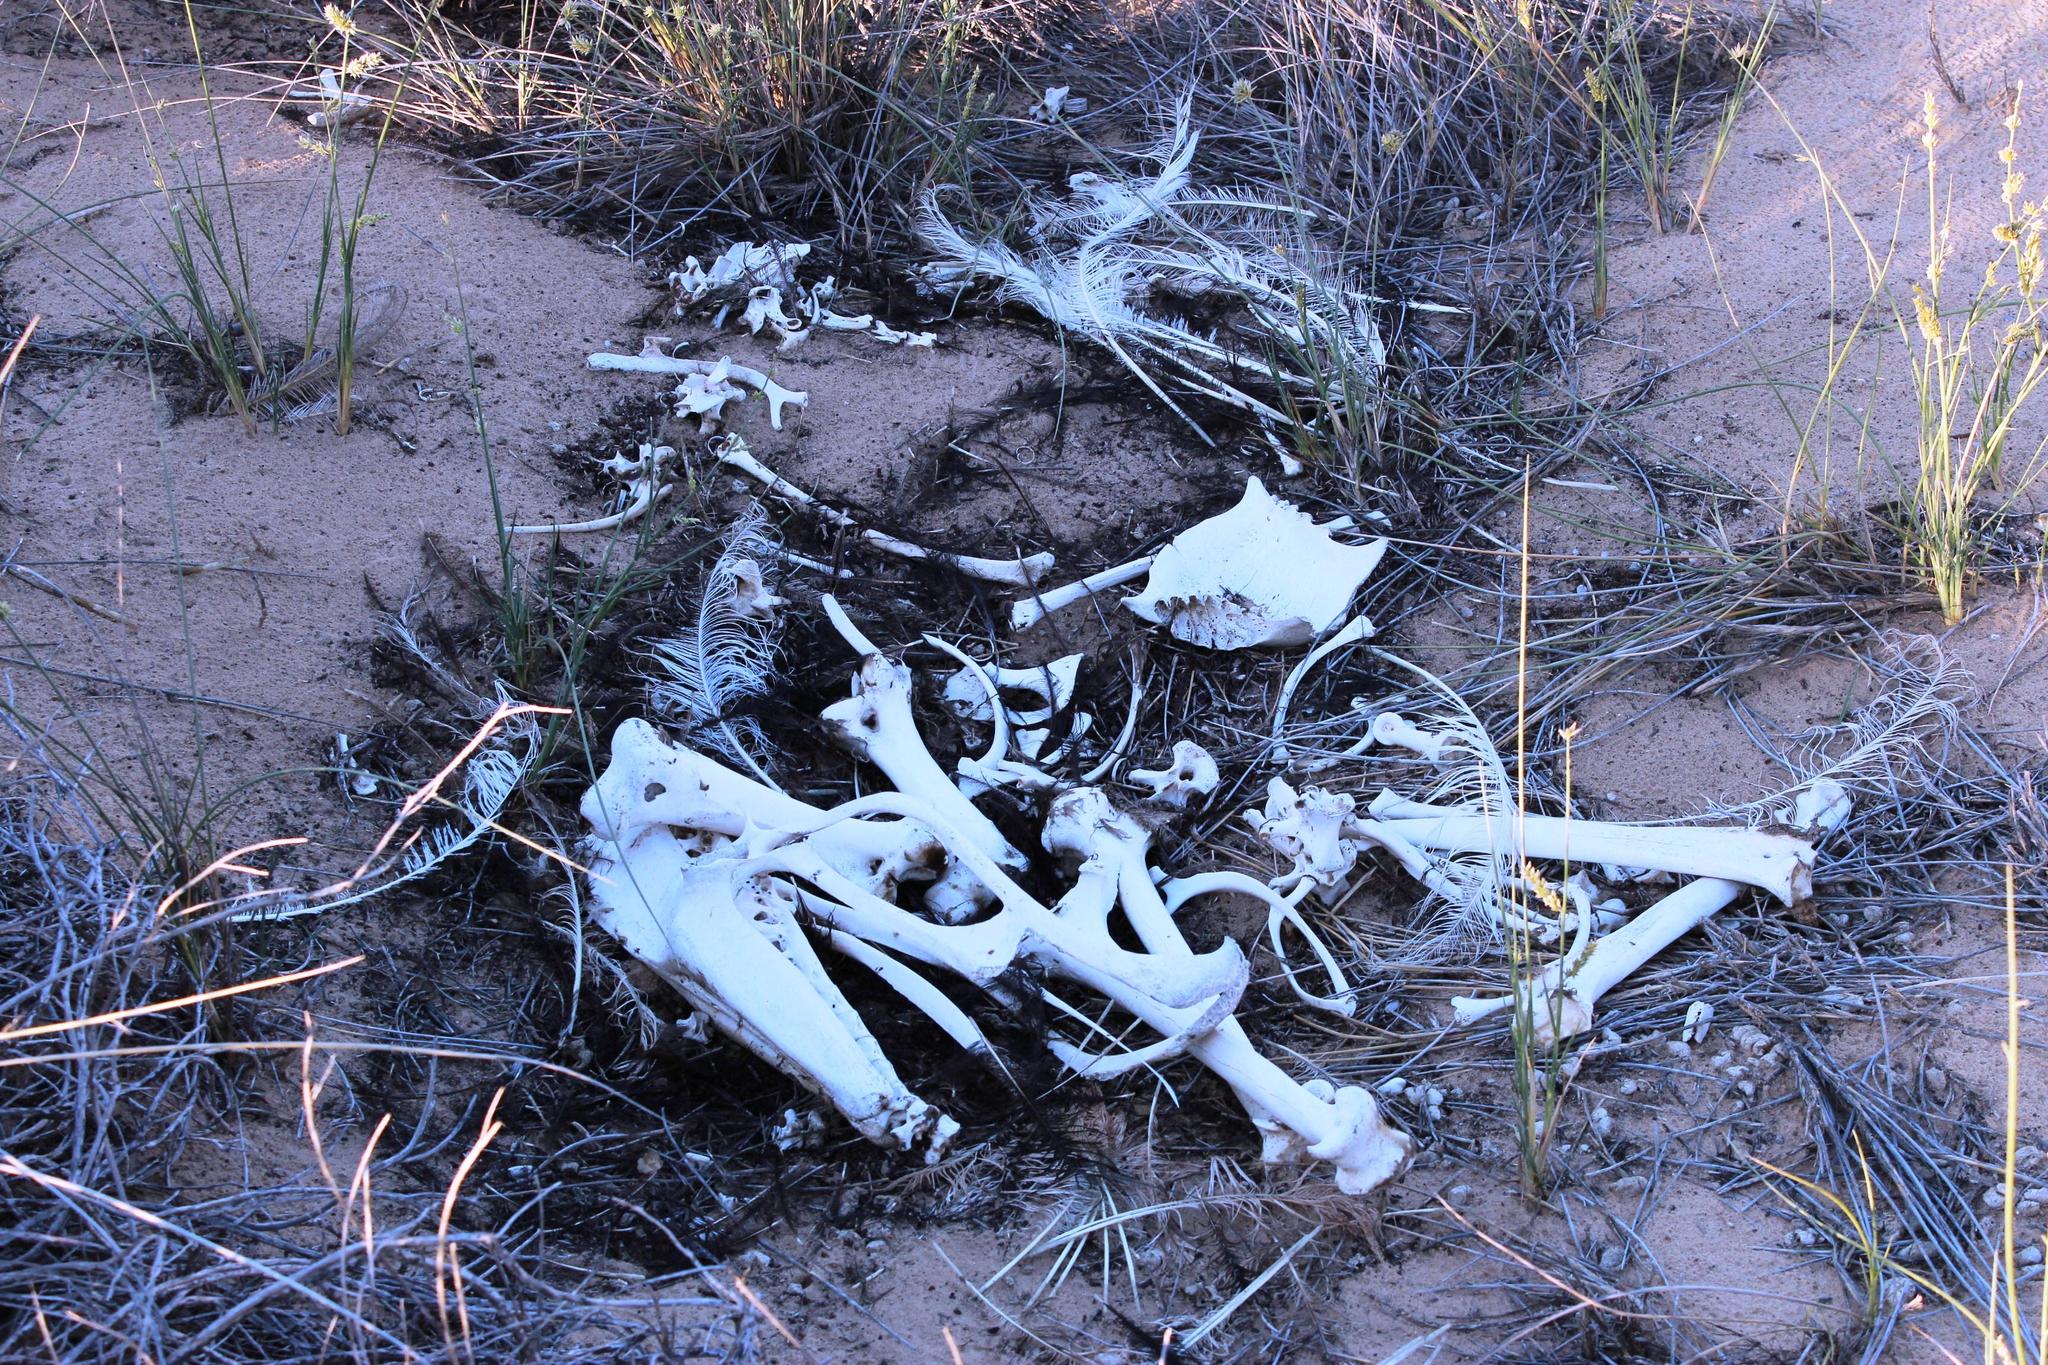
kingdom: Animalia
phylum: Chordata
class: Aves
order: Struthioniformes
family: Struthionidae
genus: Struthio
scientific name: Struthio camelus
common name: Common ostrich
